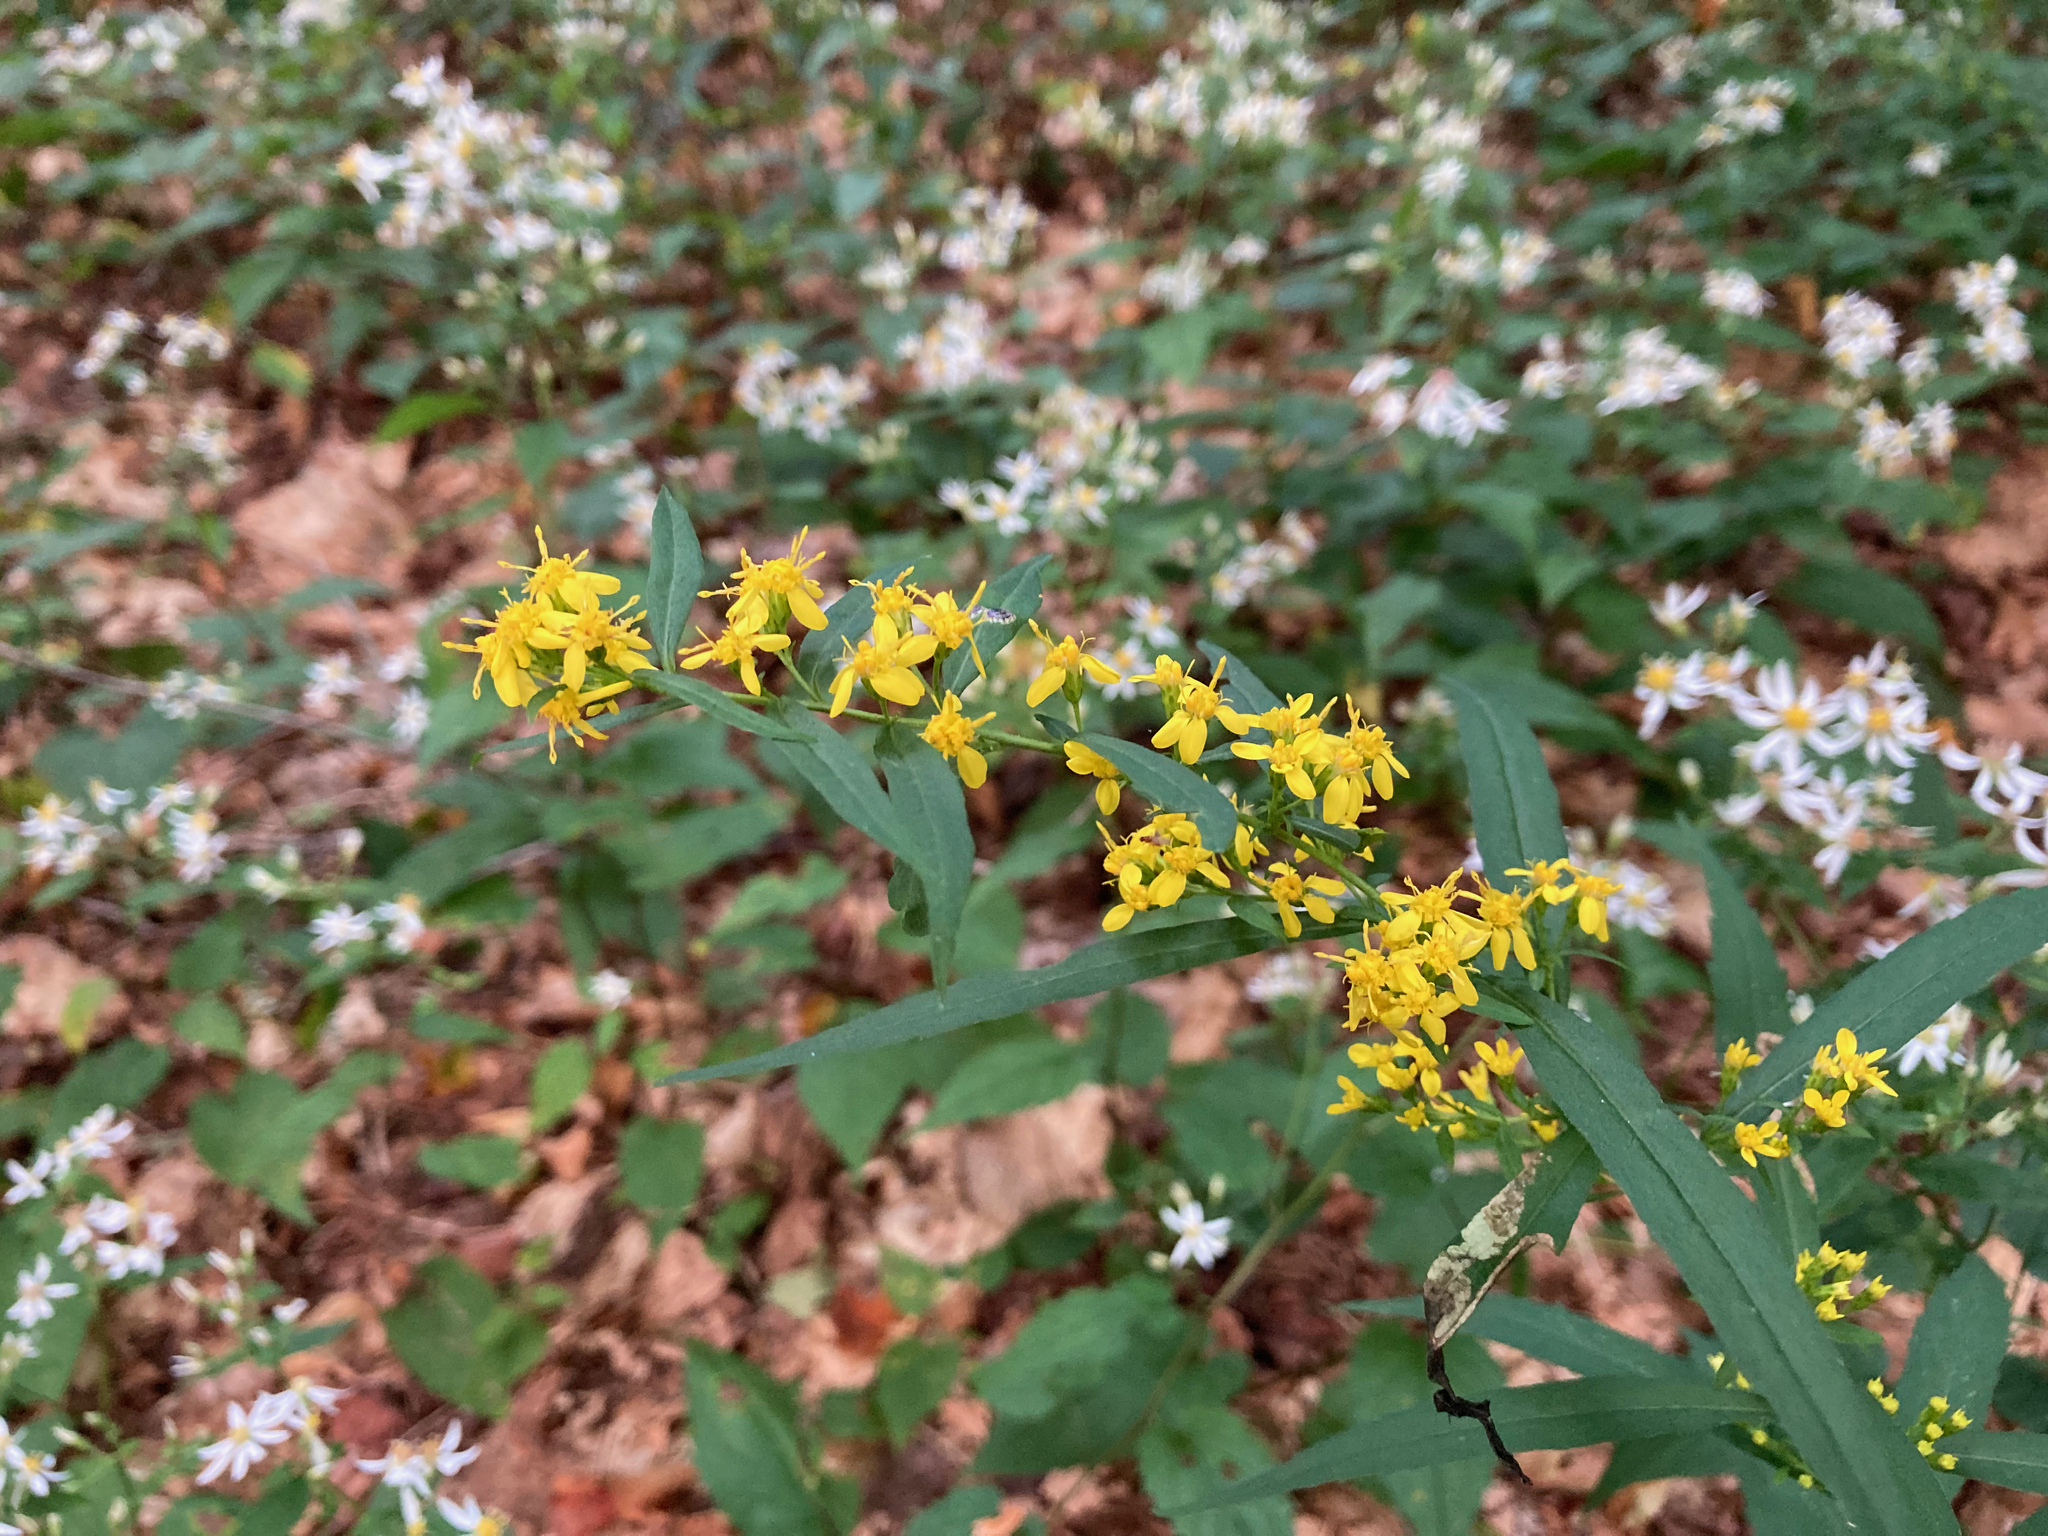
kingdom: Plantae
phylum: Tracheophyta
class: Magnoliopsida
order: Asterales
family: Asteraceae
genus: Solidago
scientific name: Solidago caesia
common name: Woodland goldenrod
